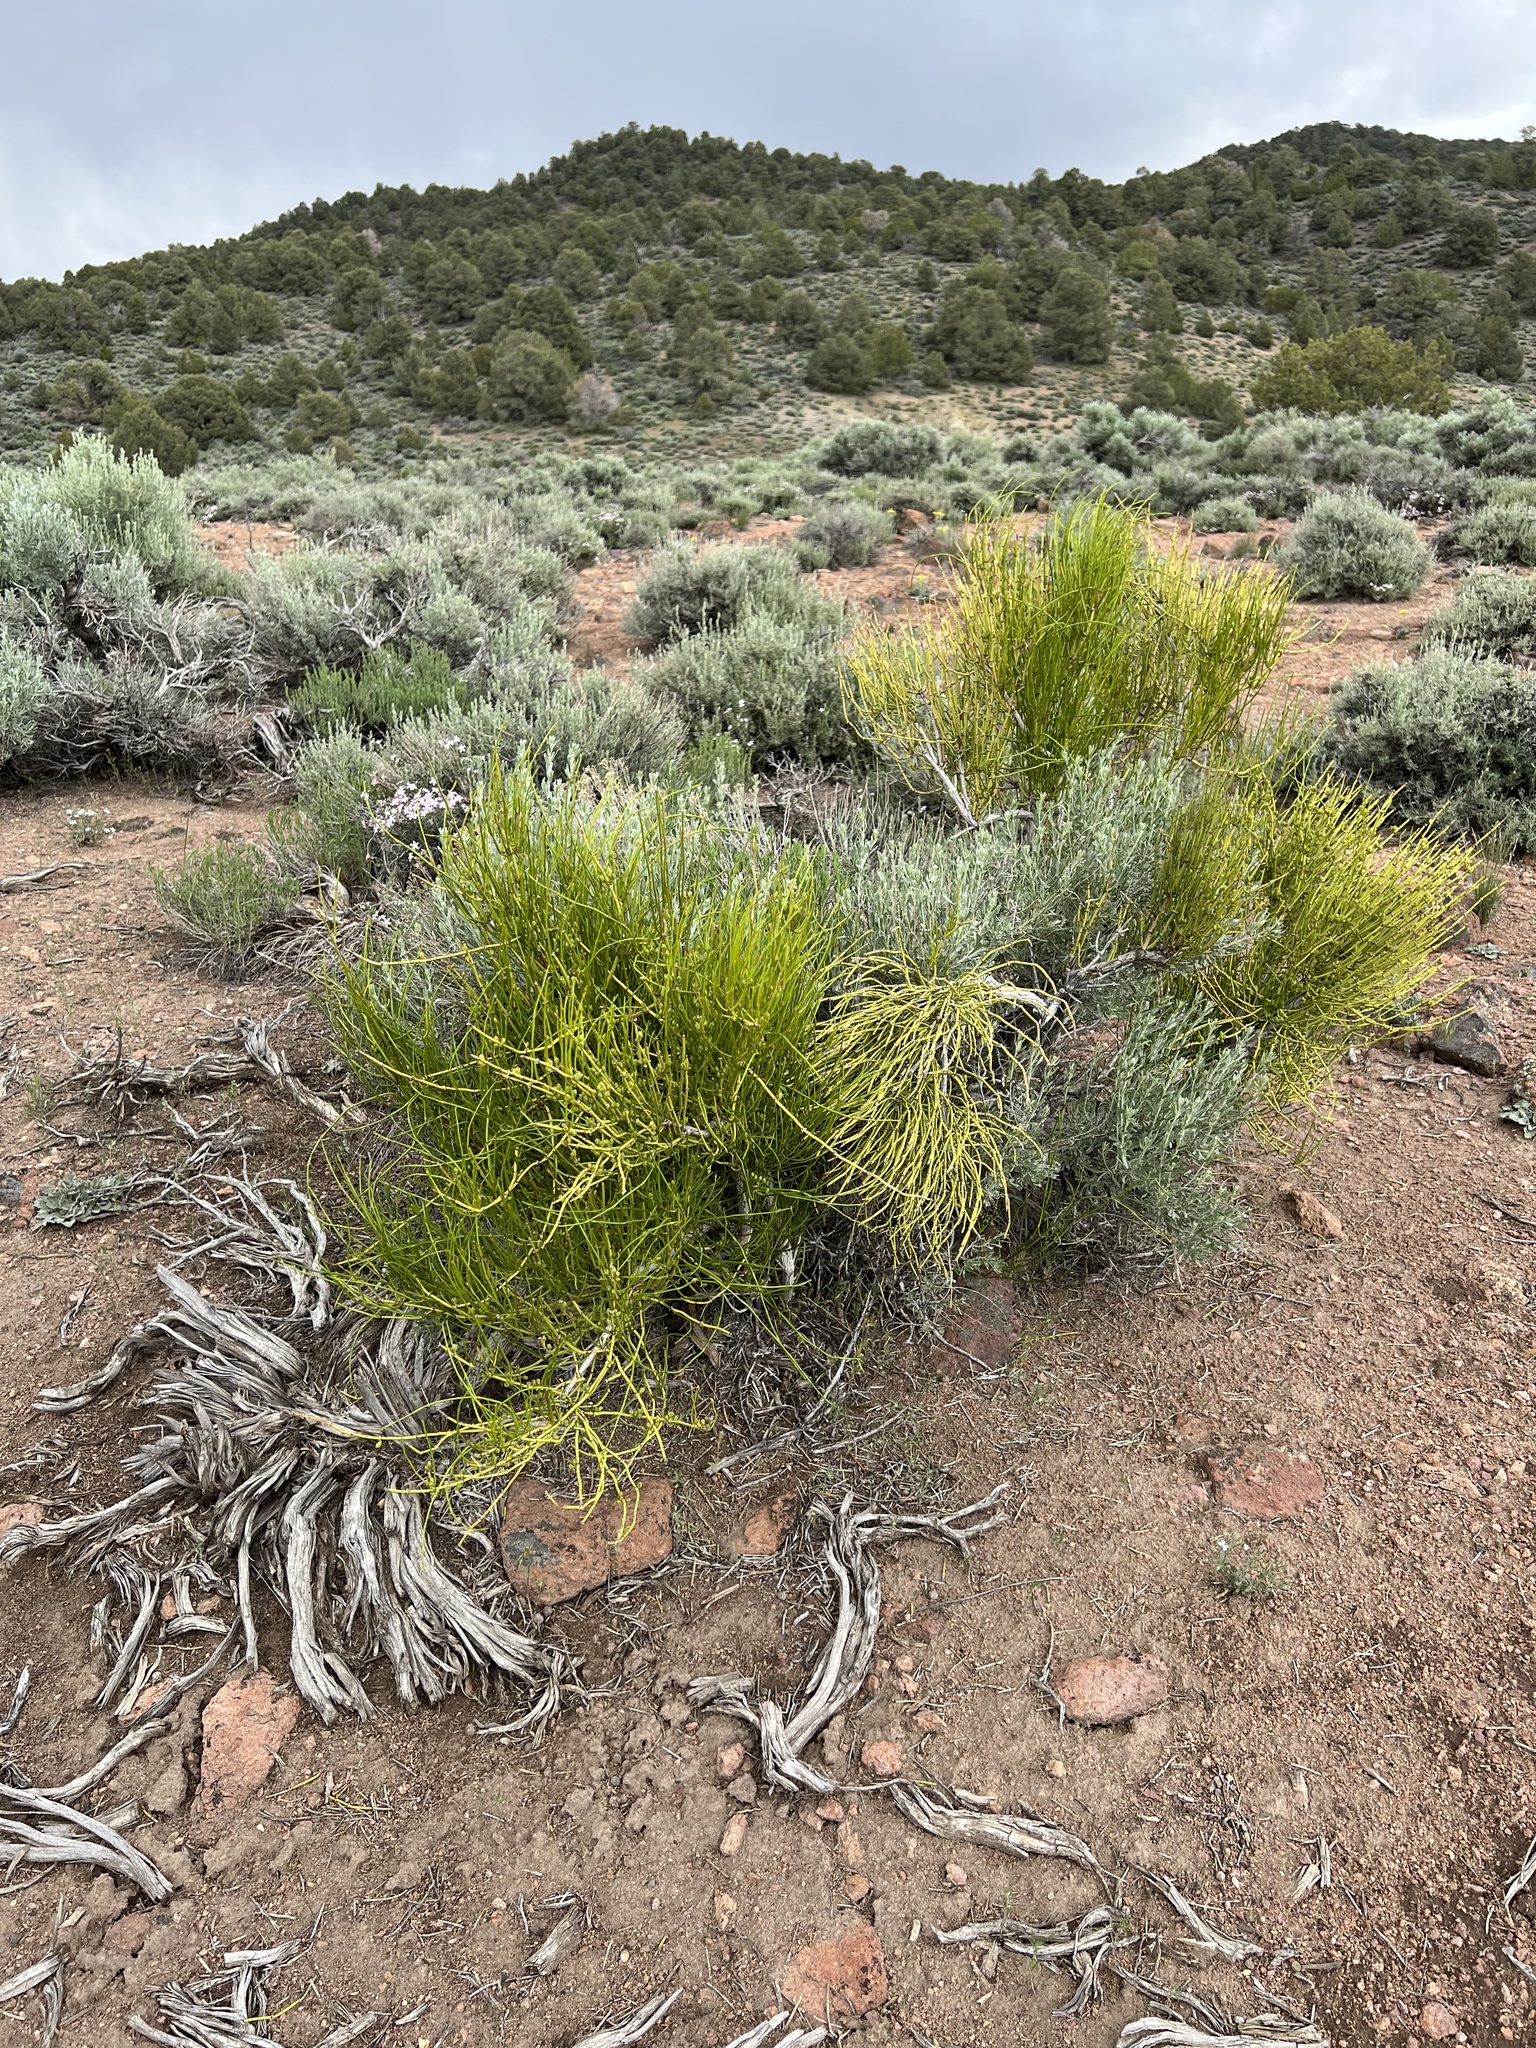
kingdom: Plantae
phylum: Tracheophyta
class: Gnetopsida
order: Ephedrales
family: Ephedraceae
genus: Ephedra
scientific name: Ephedra viridis
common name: Green ephedra
